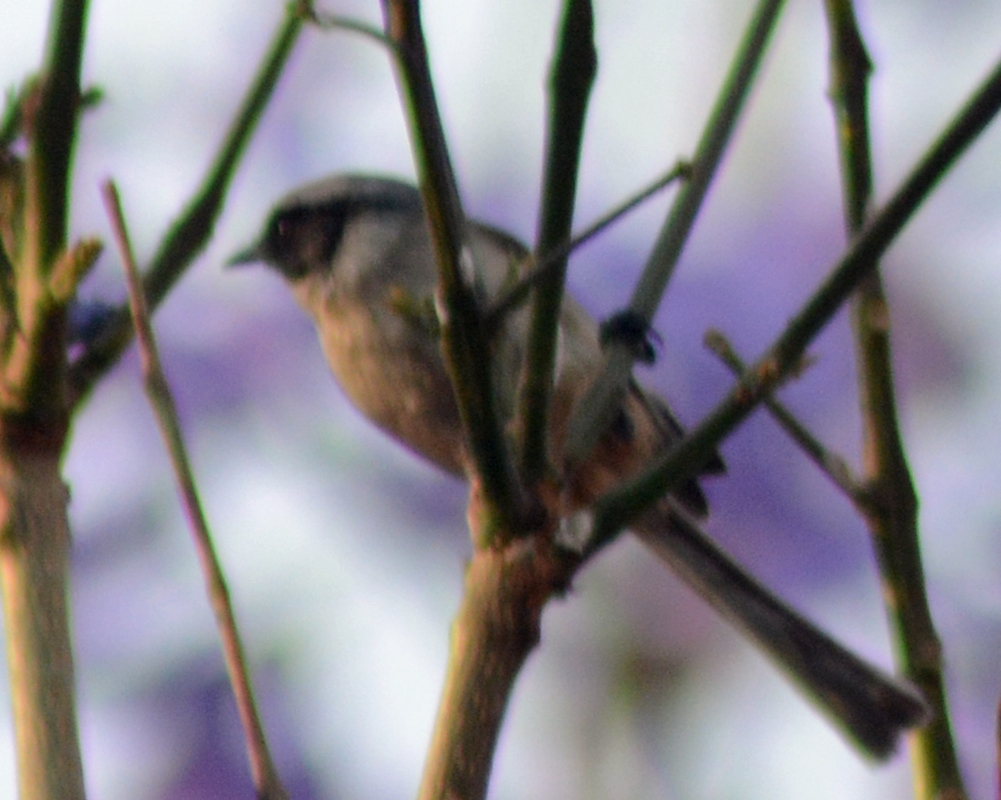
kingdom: Animalia
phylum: Chordata
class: Aves
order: Passeriformes
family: Aegithalidae
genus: Psaltriparus
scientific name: Psaltriparus minimus
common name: American bushtit
